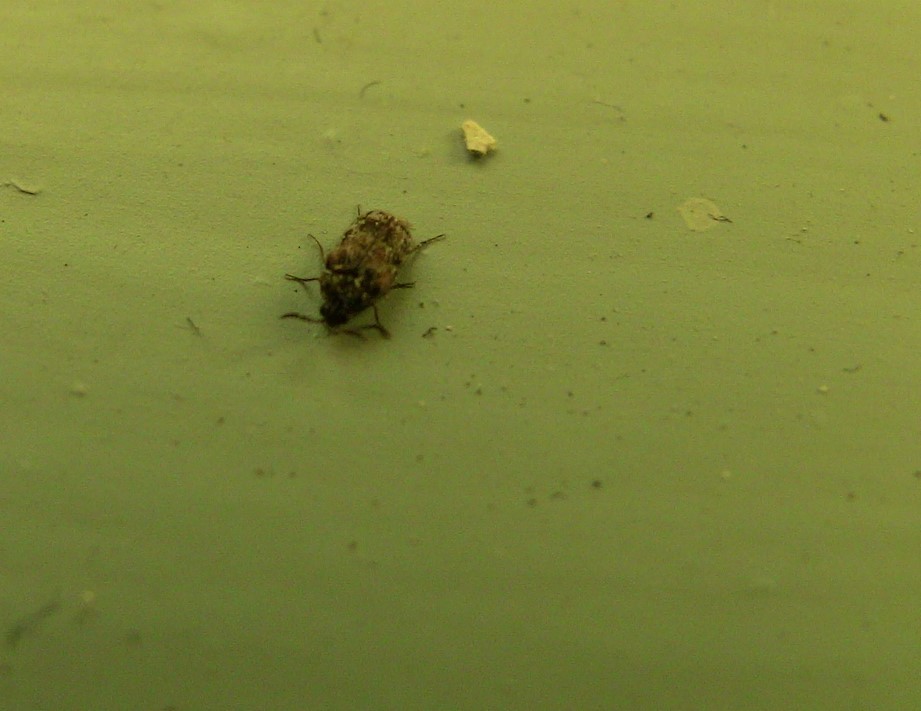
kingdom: Animalia
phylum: Arthropoda
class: Insecta
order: Coleoptera
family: Dermestidae
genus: Trogoderma
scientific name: Trogoderma sternale
